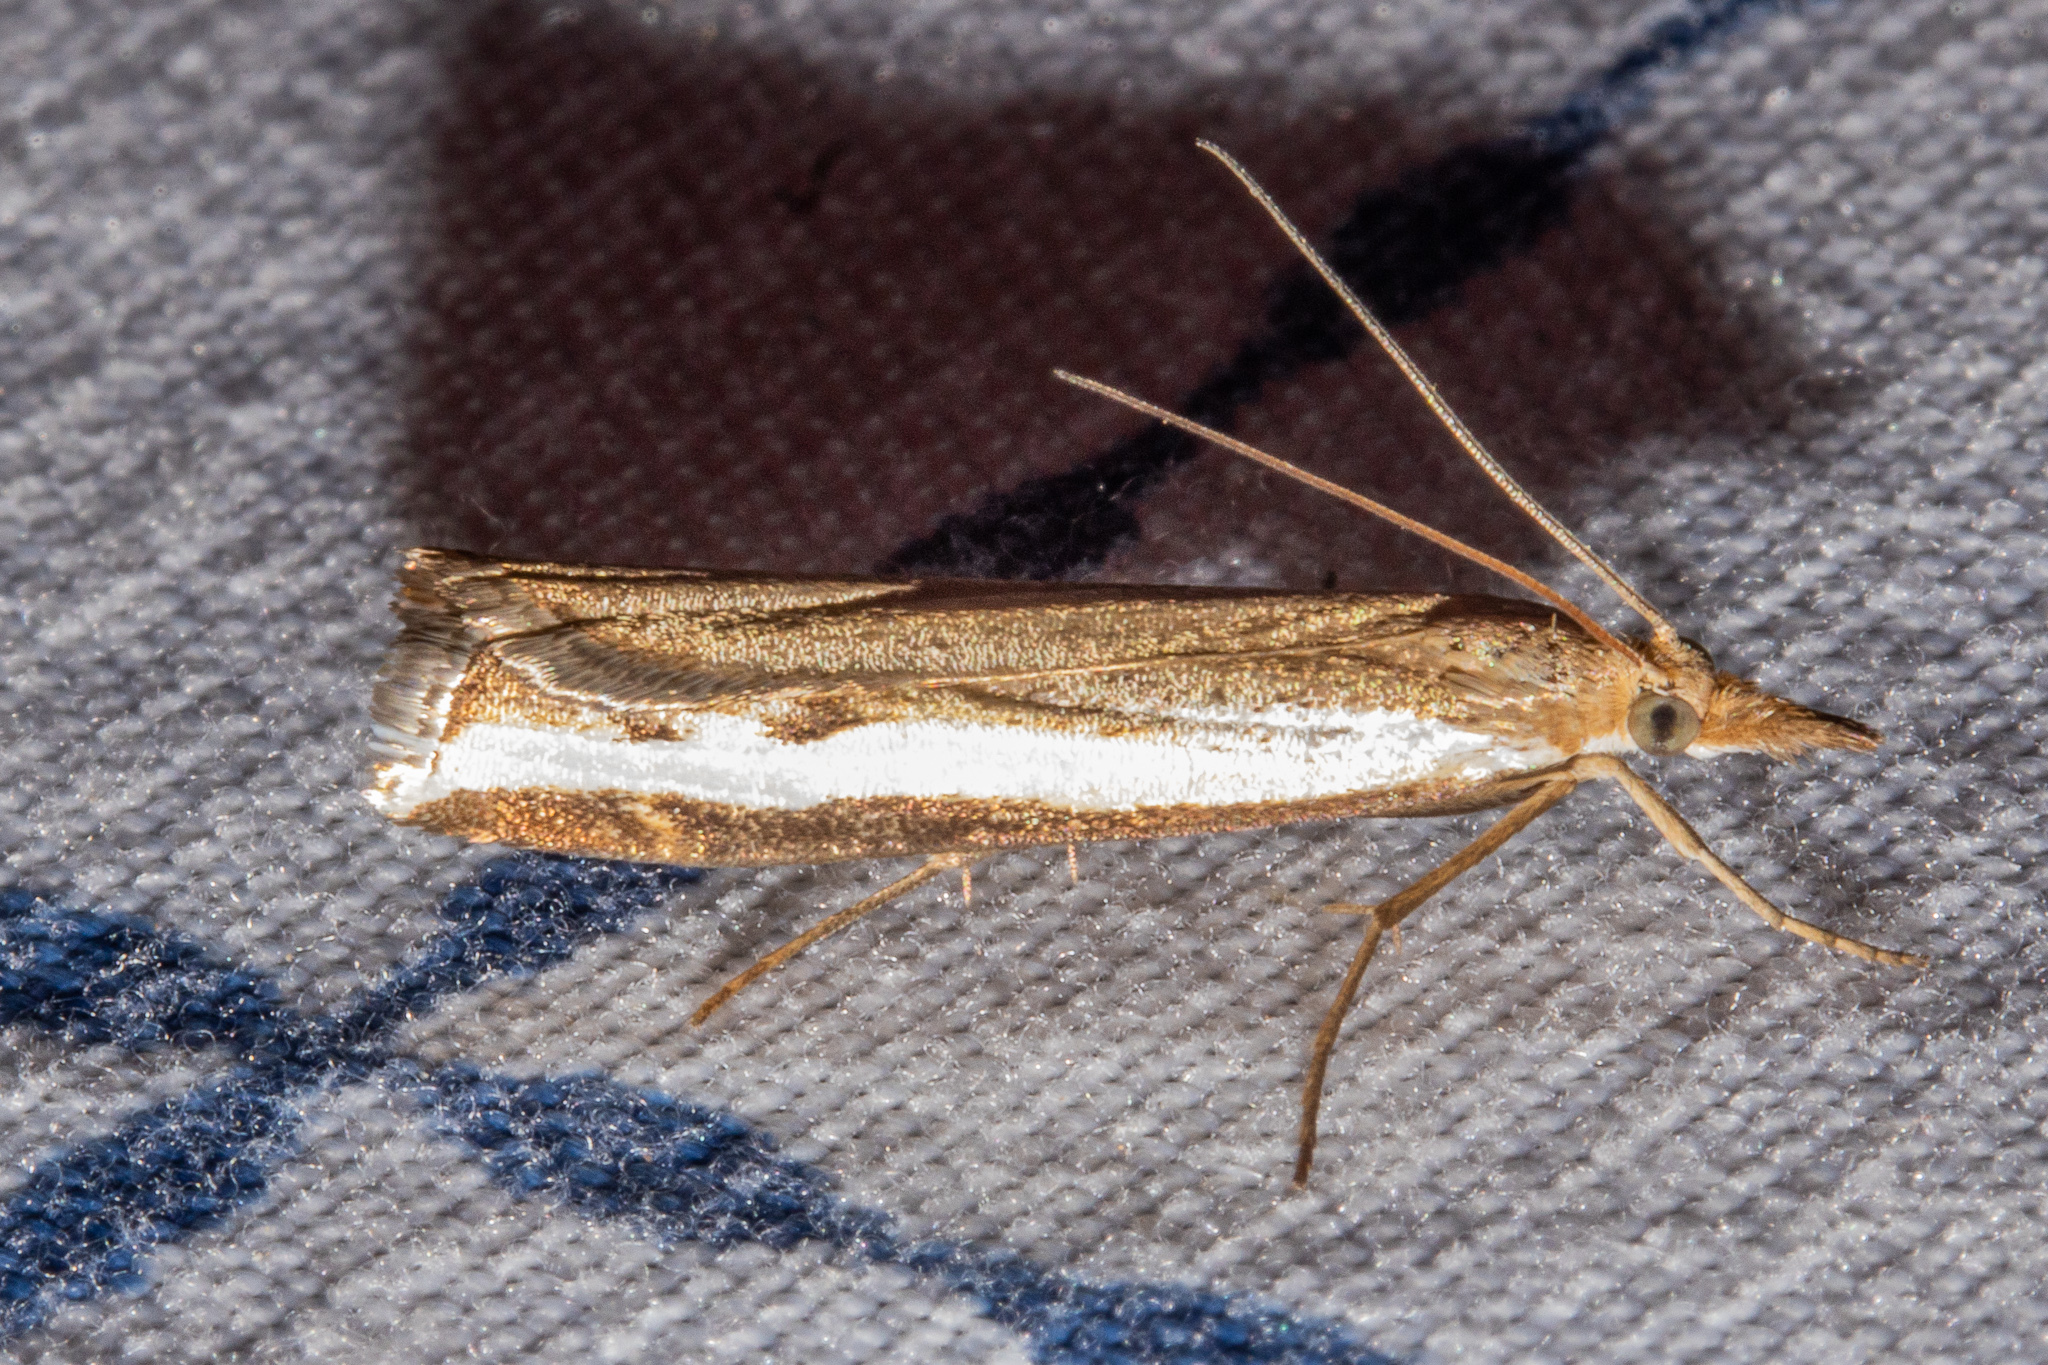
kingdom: Animalia
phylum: Arthropoda
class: Insecta
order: Lepidoptera
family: Crambidae
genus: Orocrambus
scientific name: Orocrambus flexuosellus
